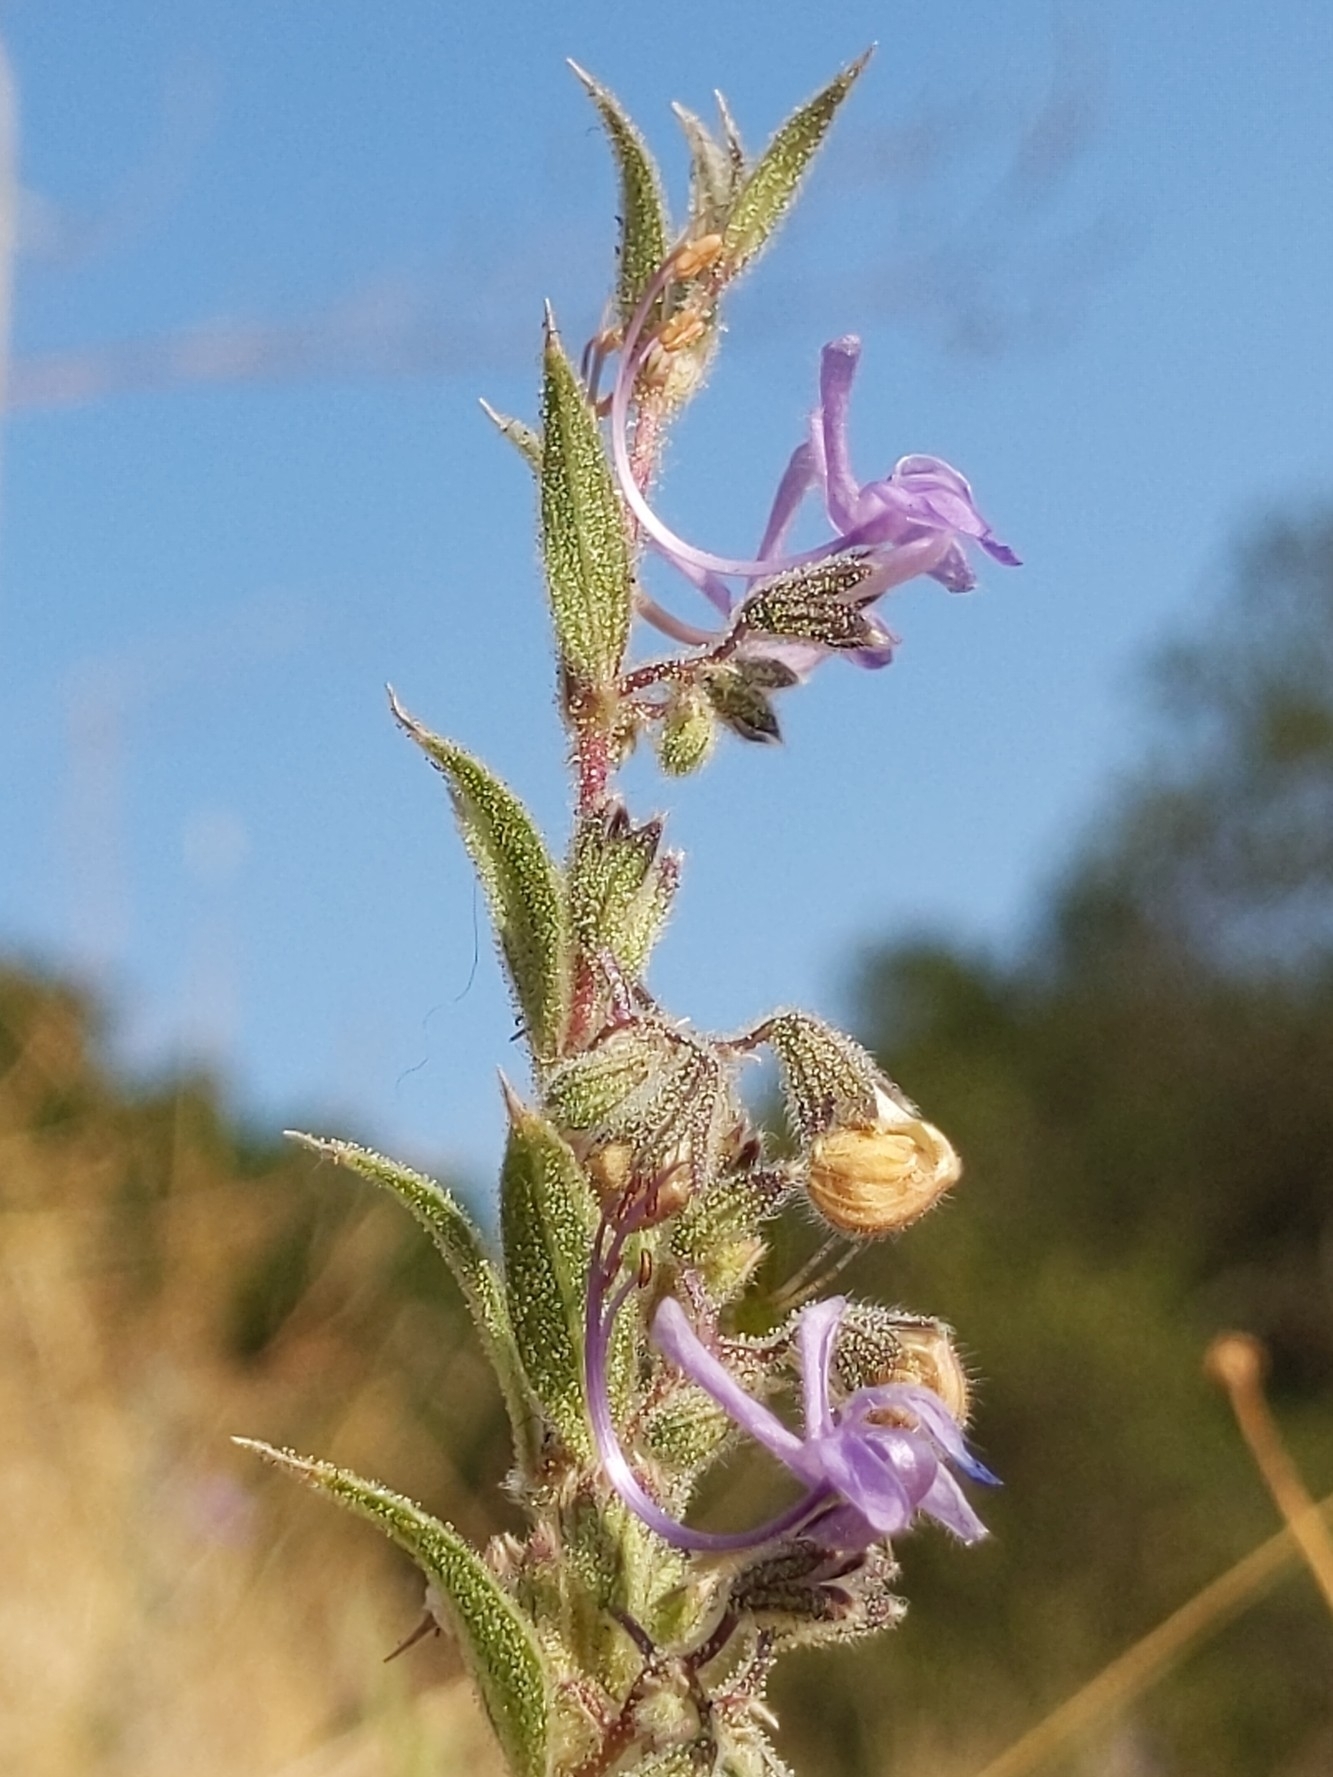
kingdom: Plantae
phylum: Tracheophyta
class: Magnoliopsida
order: Lamiales
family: Lamiaceae
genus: Trichostema
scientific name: Trichostema lanceolatum
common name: Vinegar-weed
